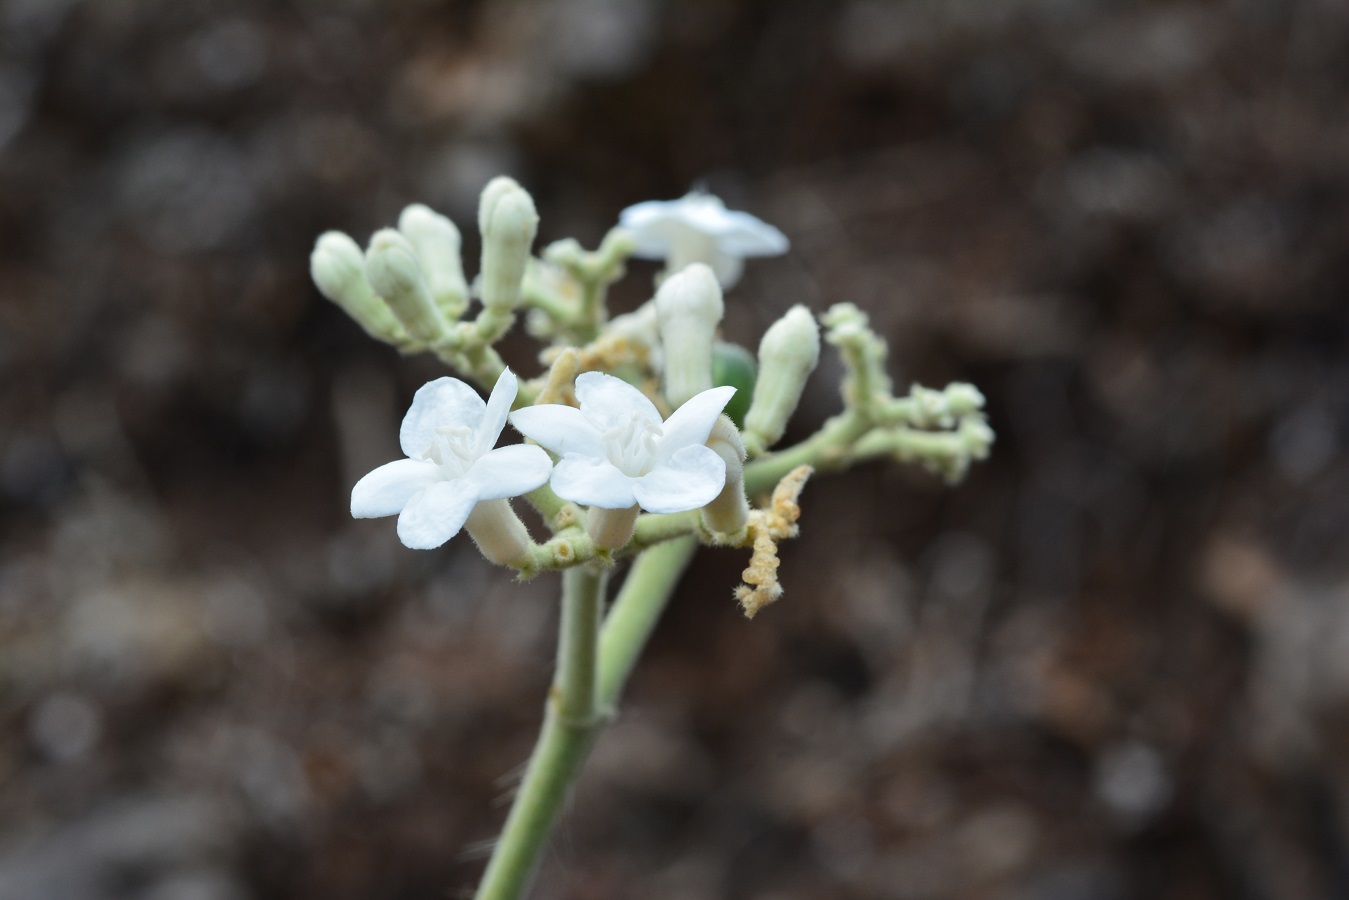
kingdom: Plantae
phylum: Tracheophyta
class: Magnoliopsida
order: Malpighiales
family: Euphorbiaceae
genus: Cnidoscolus
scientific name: Cnidoscolus aconitifolius
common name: Cabbage-star
